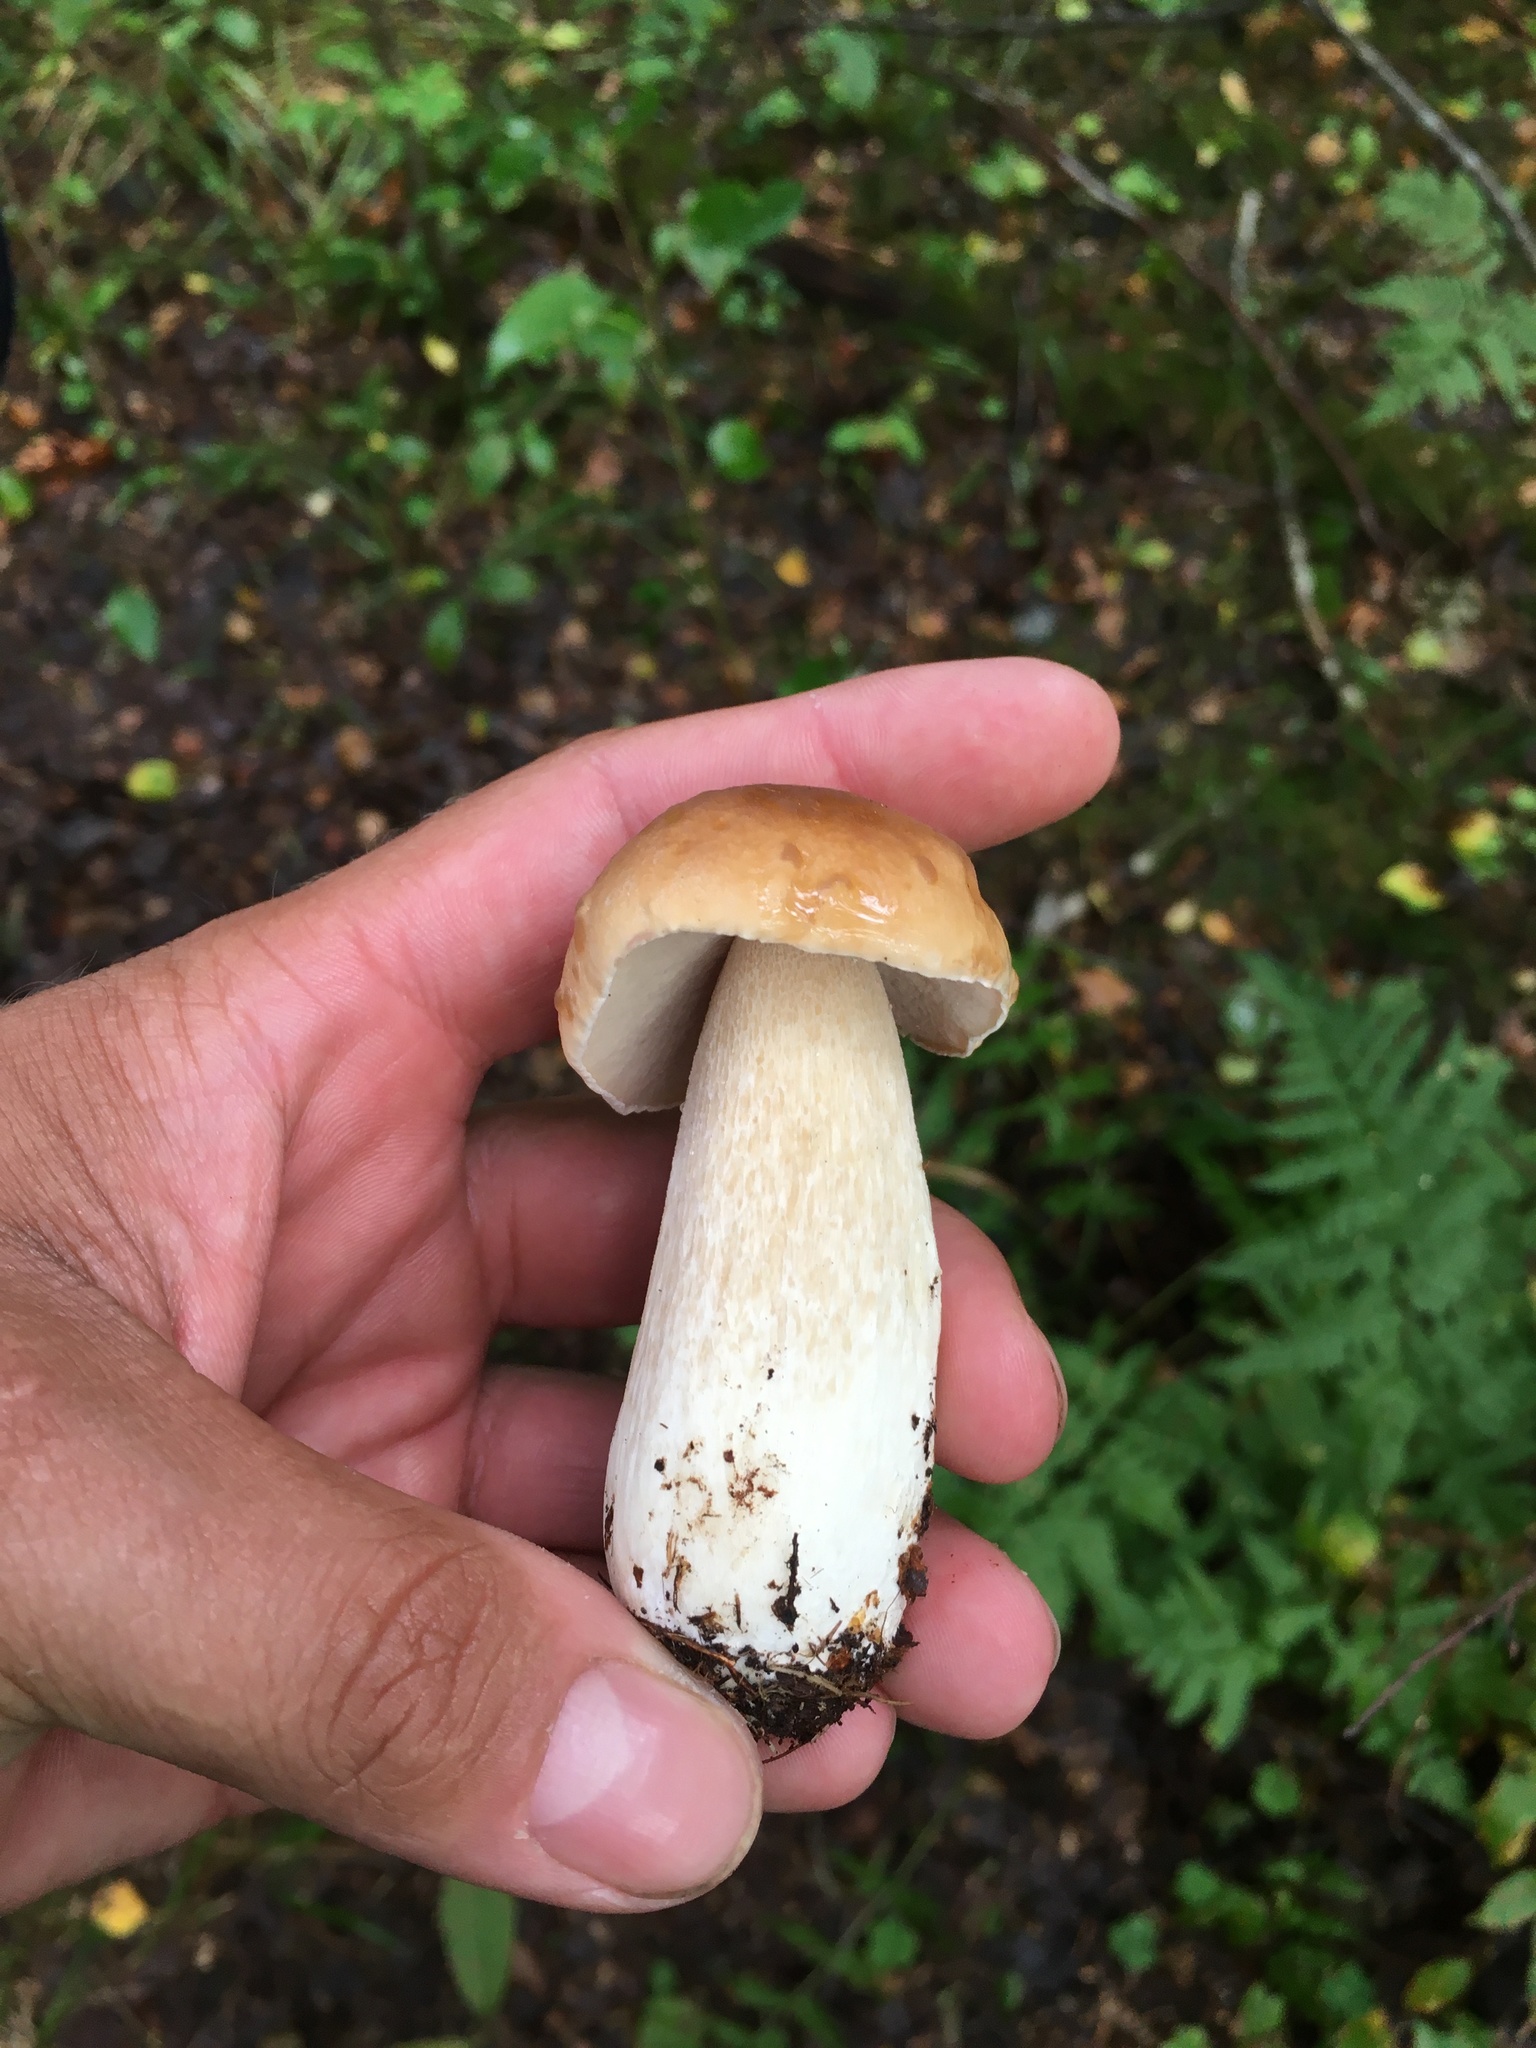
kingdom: Fungi
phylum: Basidiomycota
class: Agaricomycetes
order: Boletales
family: Boletaceae
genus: Boletus
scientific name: Boletus edulis
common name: Cep
